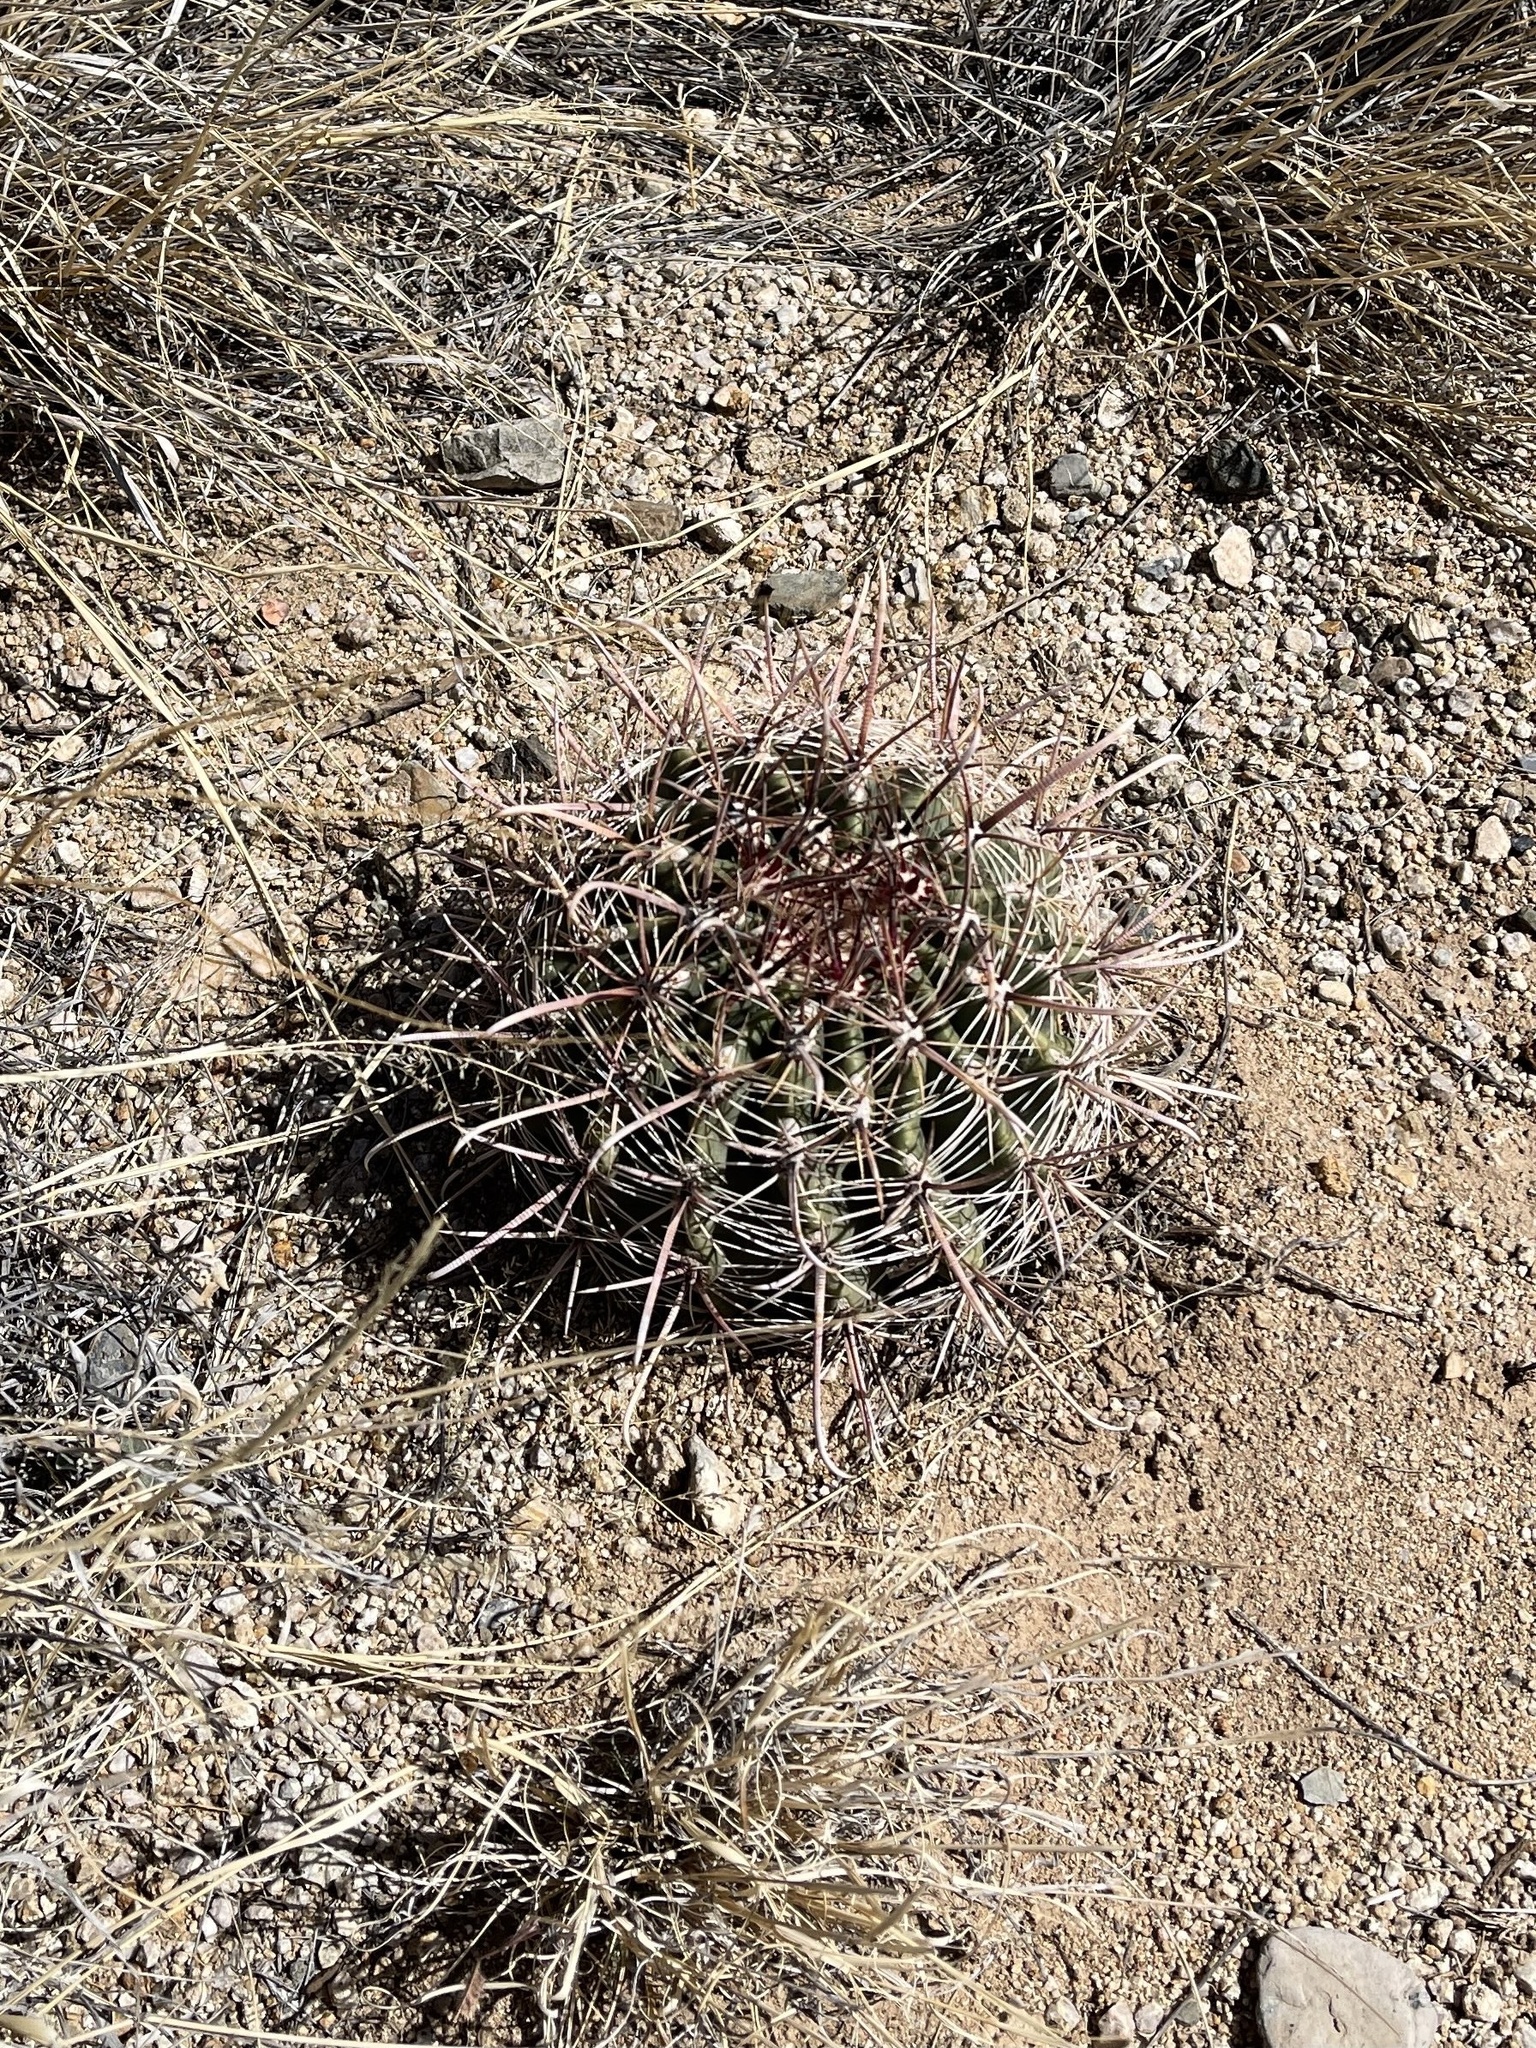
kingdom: Plantae
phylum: Tracheophyta
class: Magnoliopsida
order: Caryophyllales
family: Cactaceae
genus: Ferocactus
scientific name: Ferocactus wislizeni
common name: Candy barrel cactus
